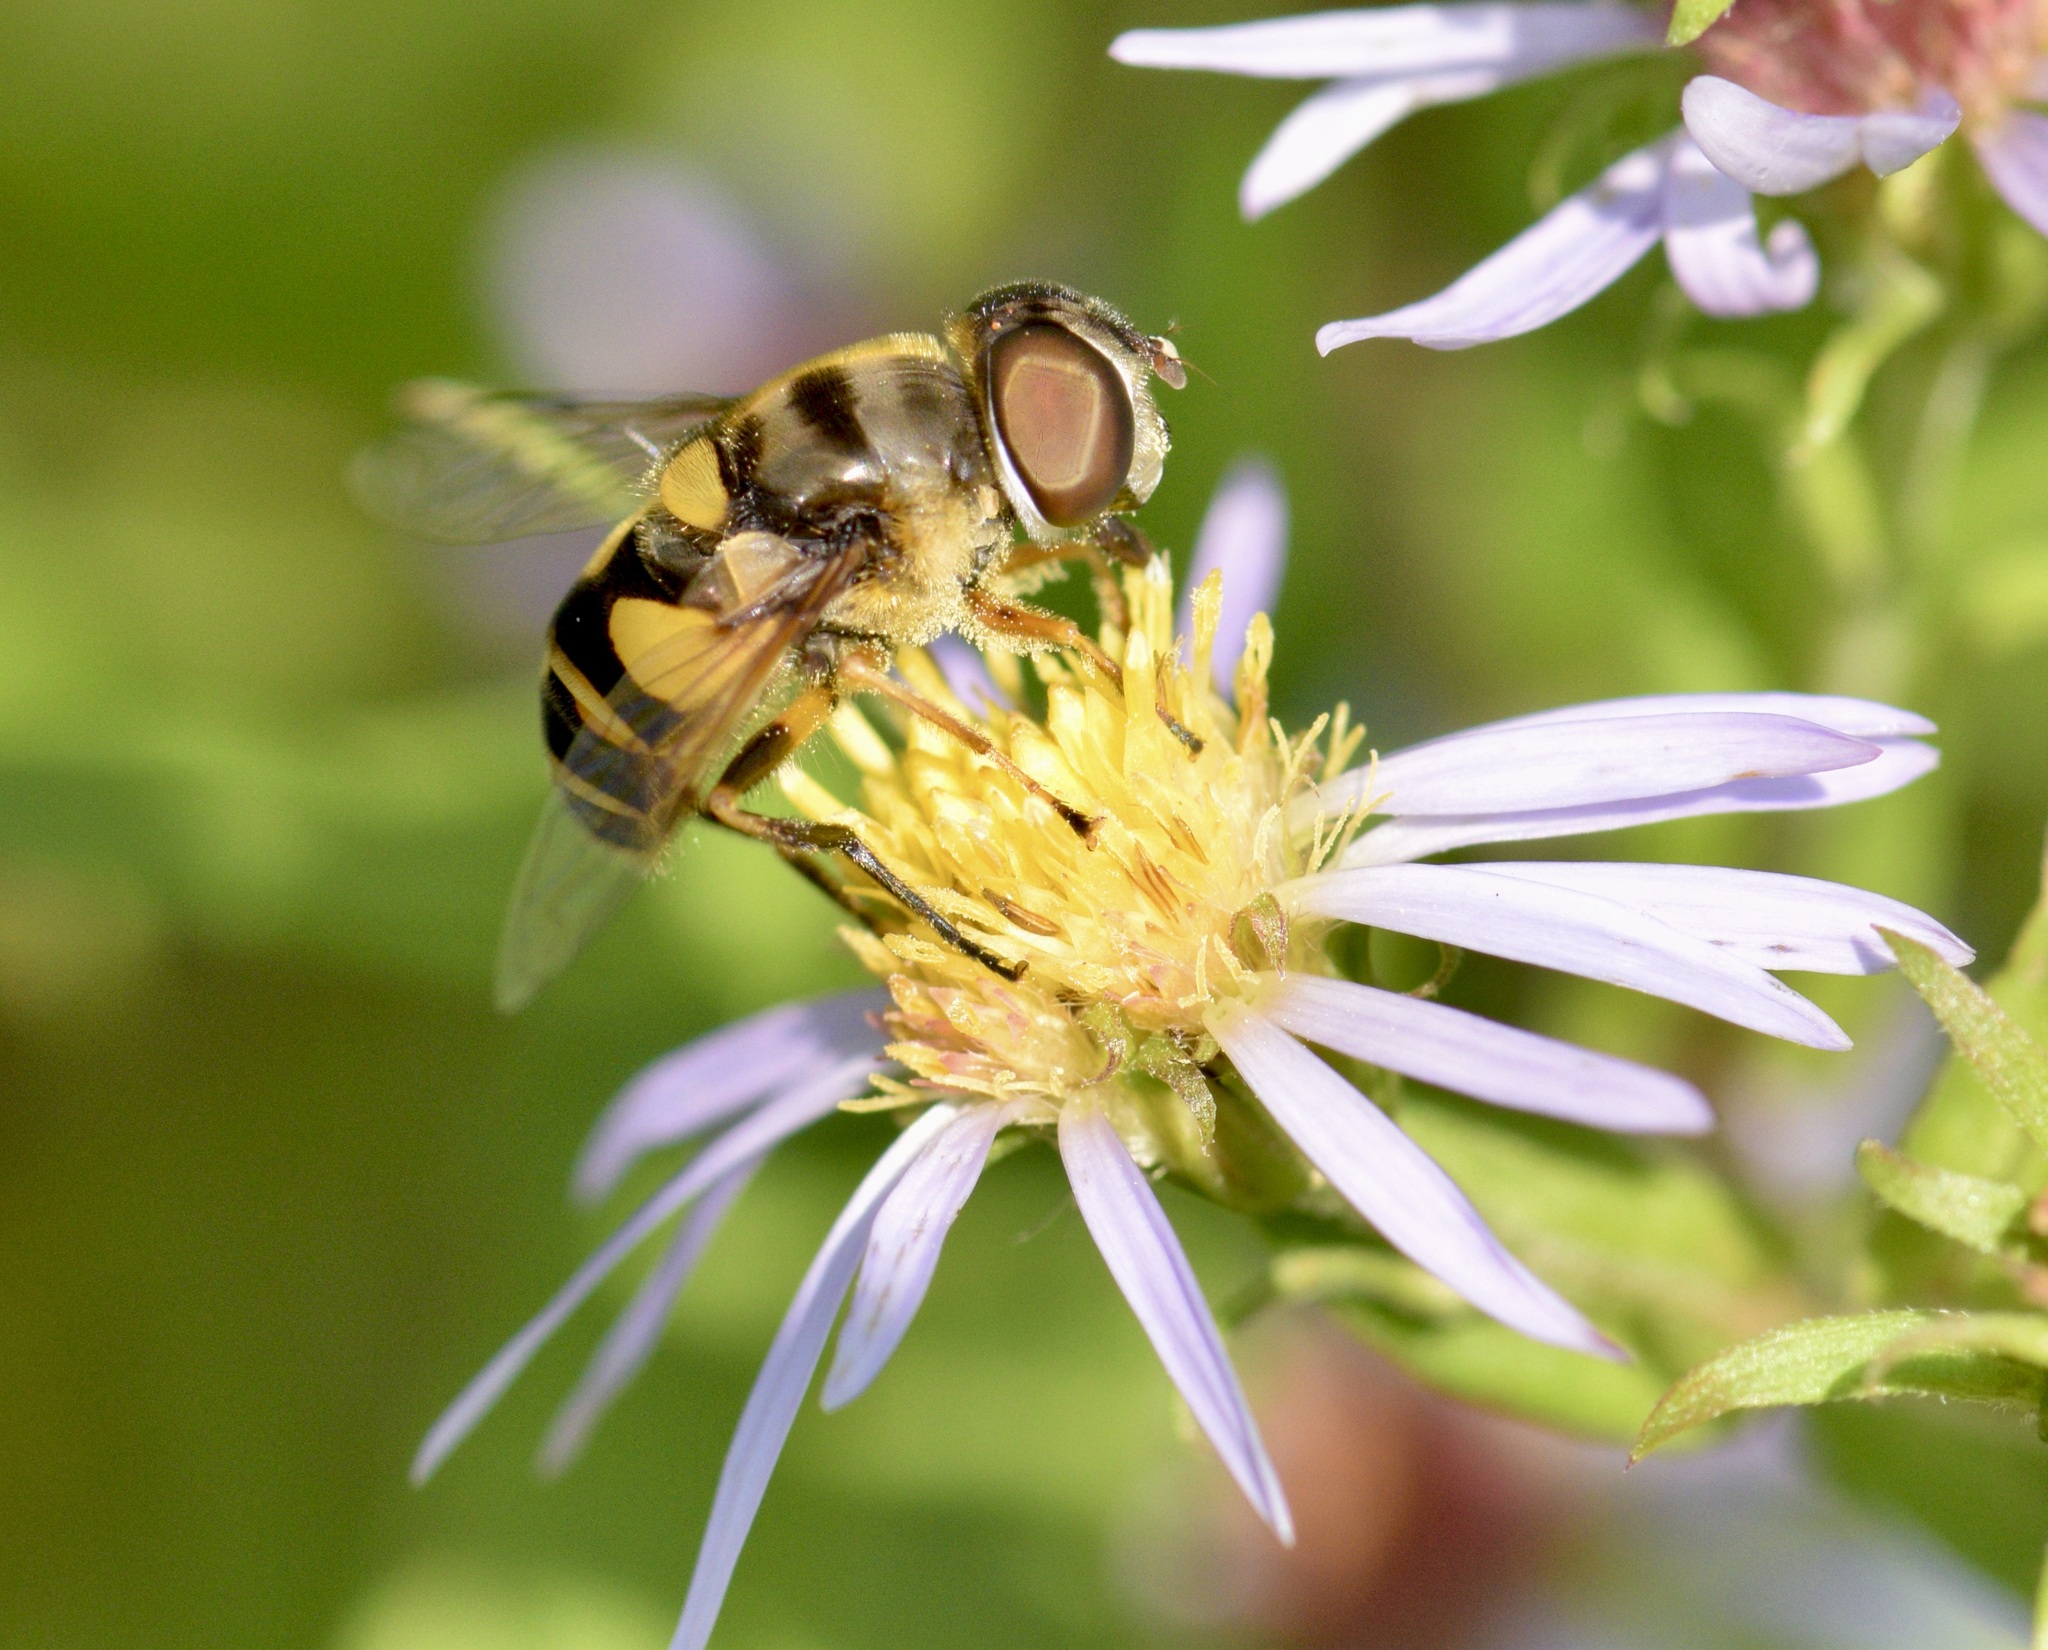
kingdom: Animalia
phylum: Arthropoda
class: Insecta
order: Diptera
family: Syrphidae
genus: Eristalis
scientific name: Eristalis transversa
